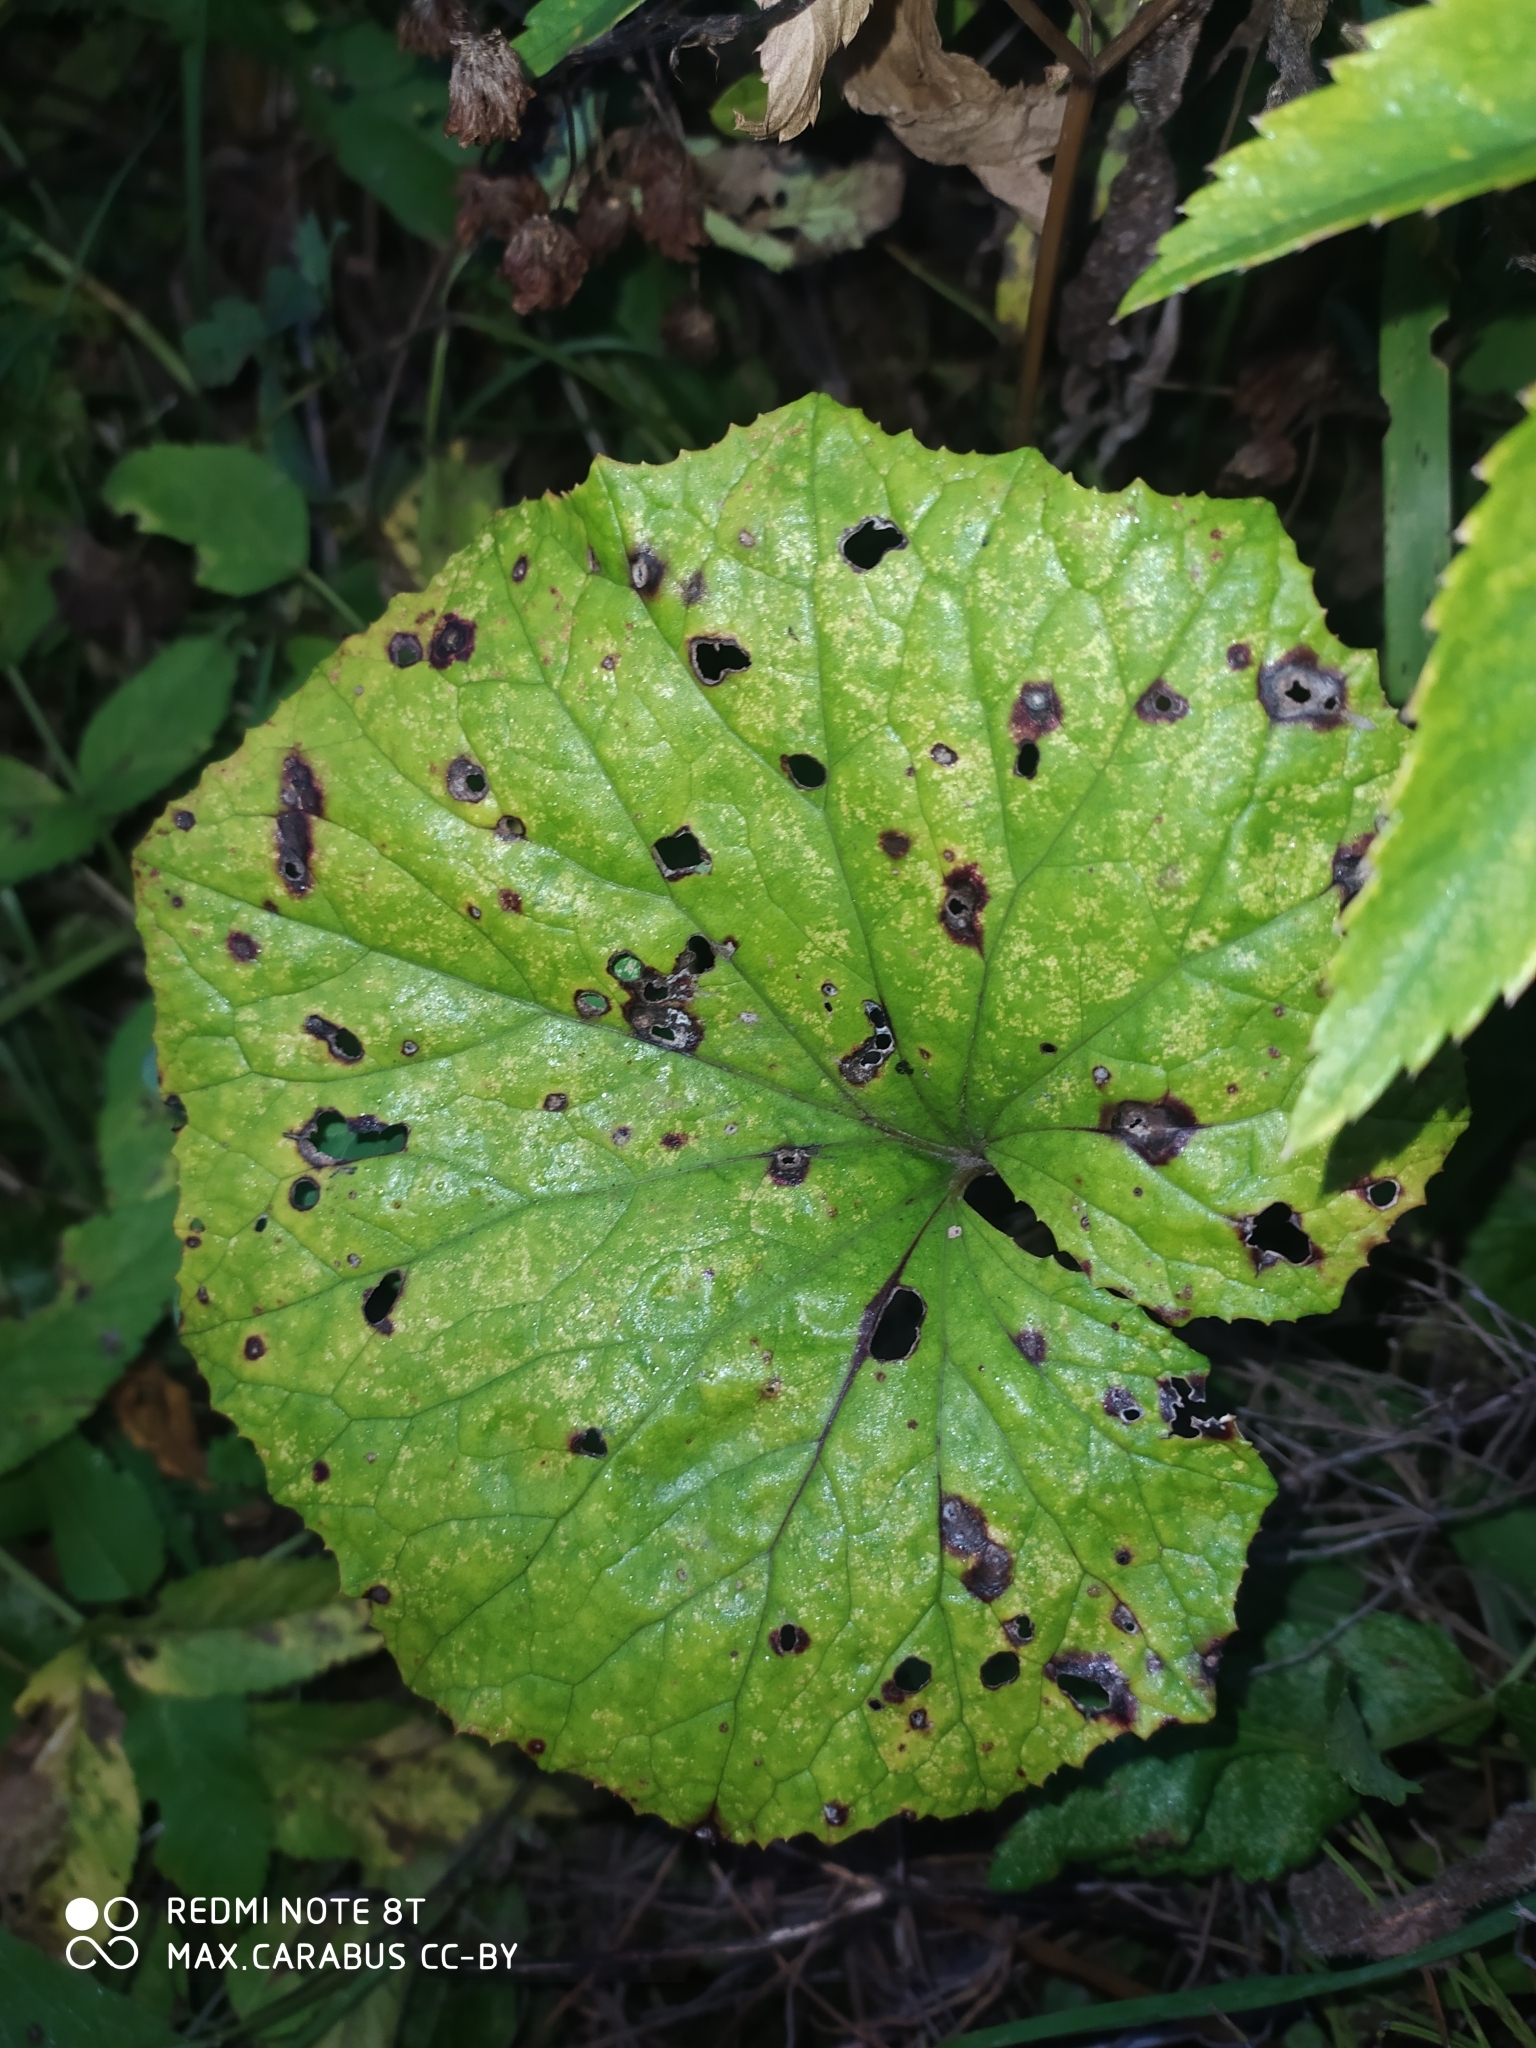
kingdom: Plantae
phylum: Tracheophyta
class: Magnoliopsida
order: Asterales
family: Asteraceae
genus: Tussilago
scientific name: Tussilago farfara
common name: Coltsfoot
